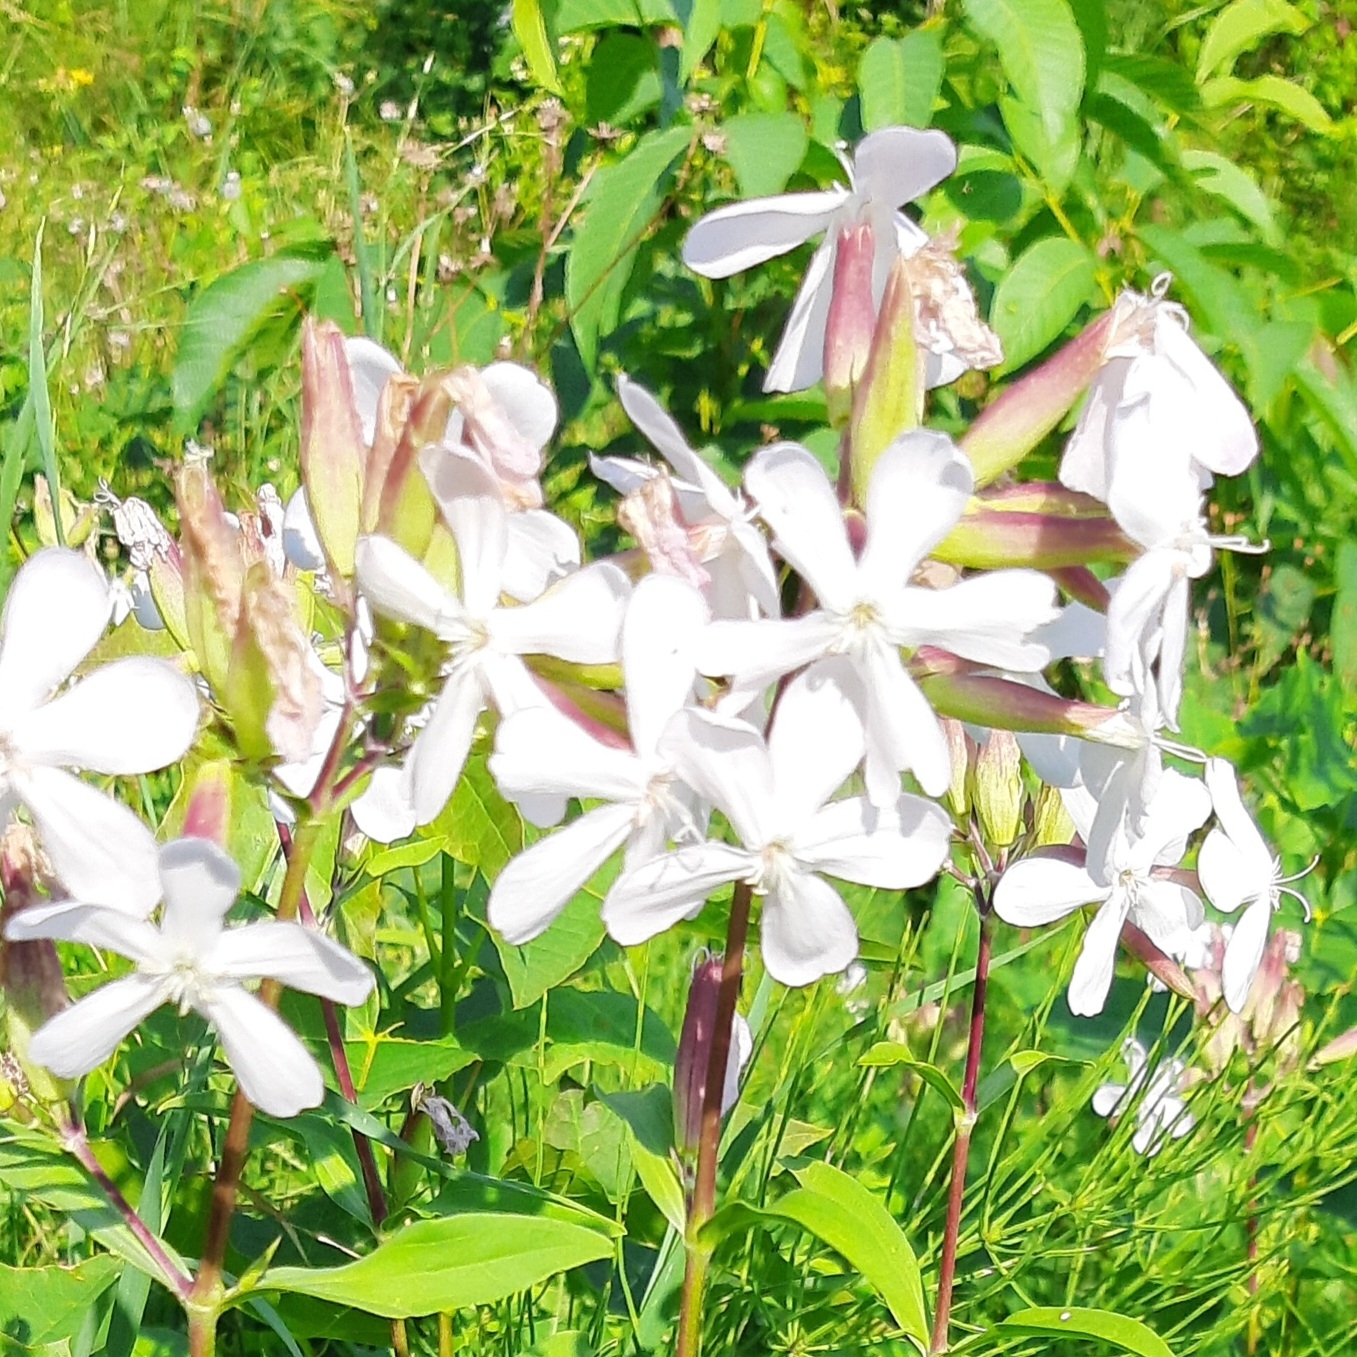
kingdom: Plantae
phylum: Tracheophyta
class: Magnoliopsida
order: Caryophyllales
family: Caryophyllaceae
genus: Saponaria
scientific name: Saponaria officinalis
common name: Soapwort
